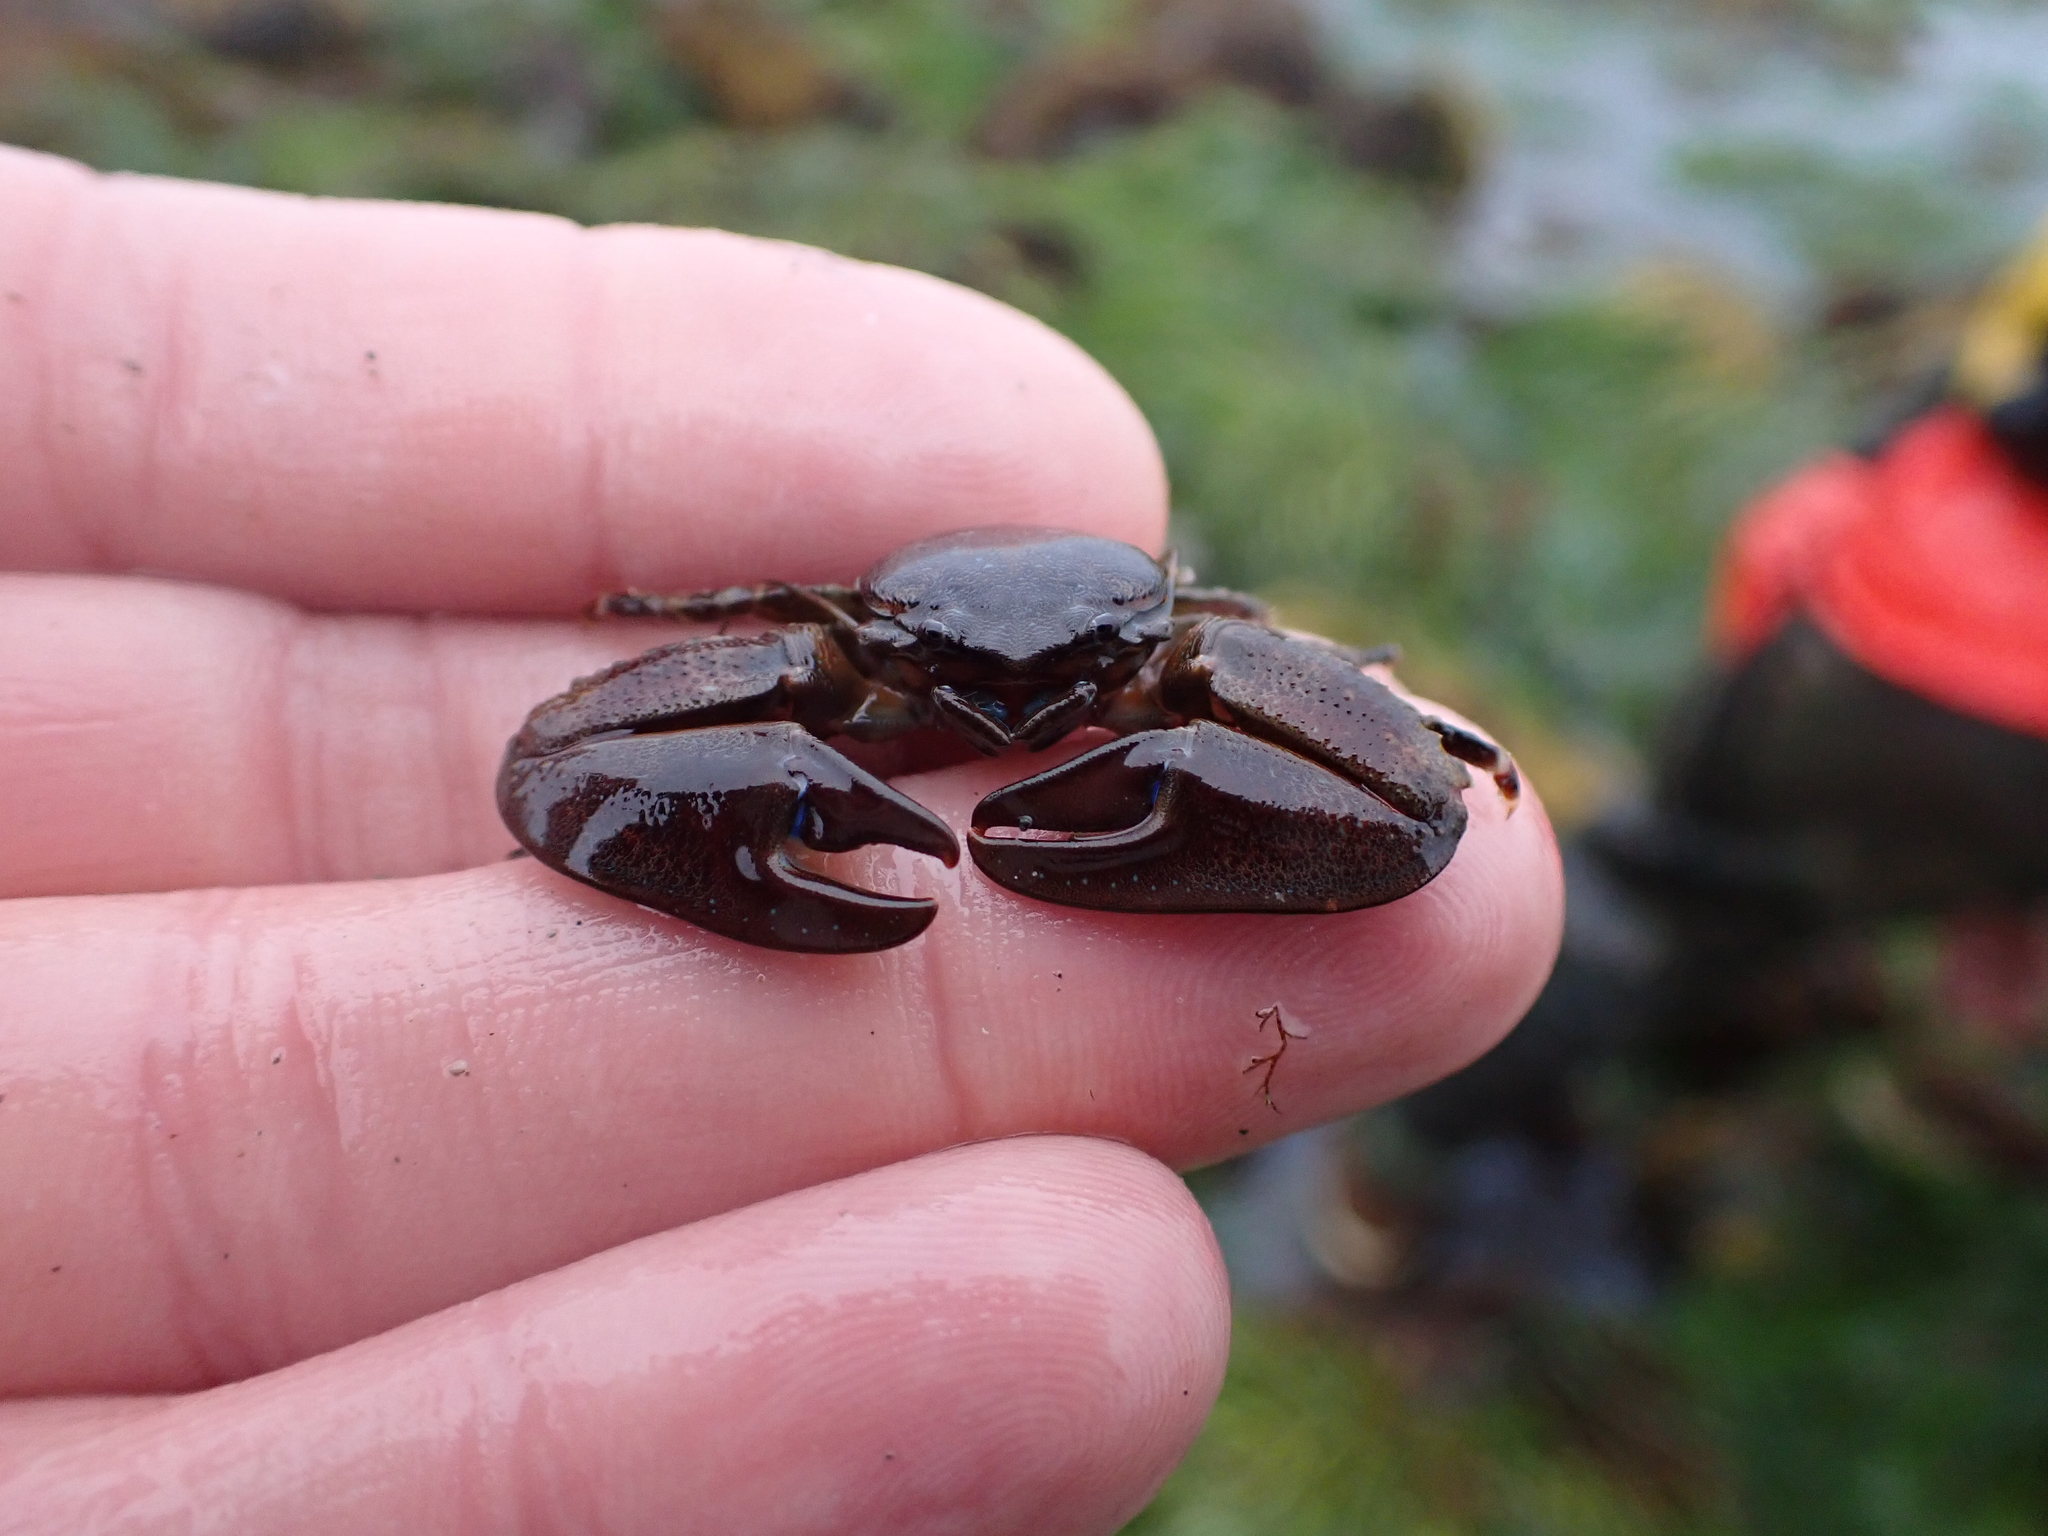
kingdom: Animalia
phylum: Arthropoda
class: Malacostraca
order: Decapoda
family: Porcellanidae
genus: Petrolisthes
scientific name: Petrolisthes eriomerus
